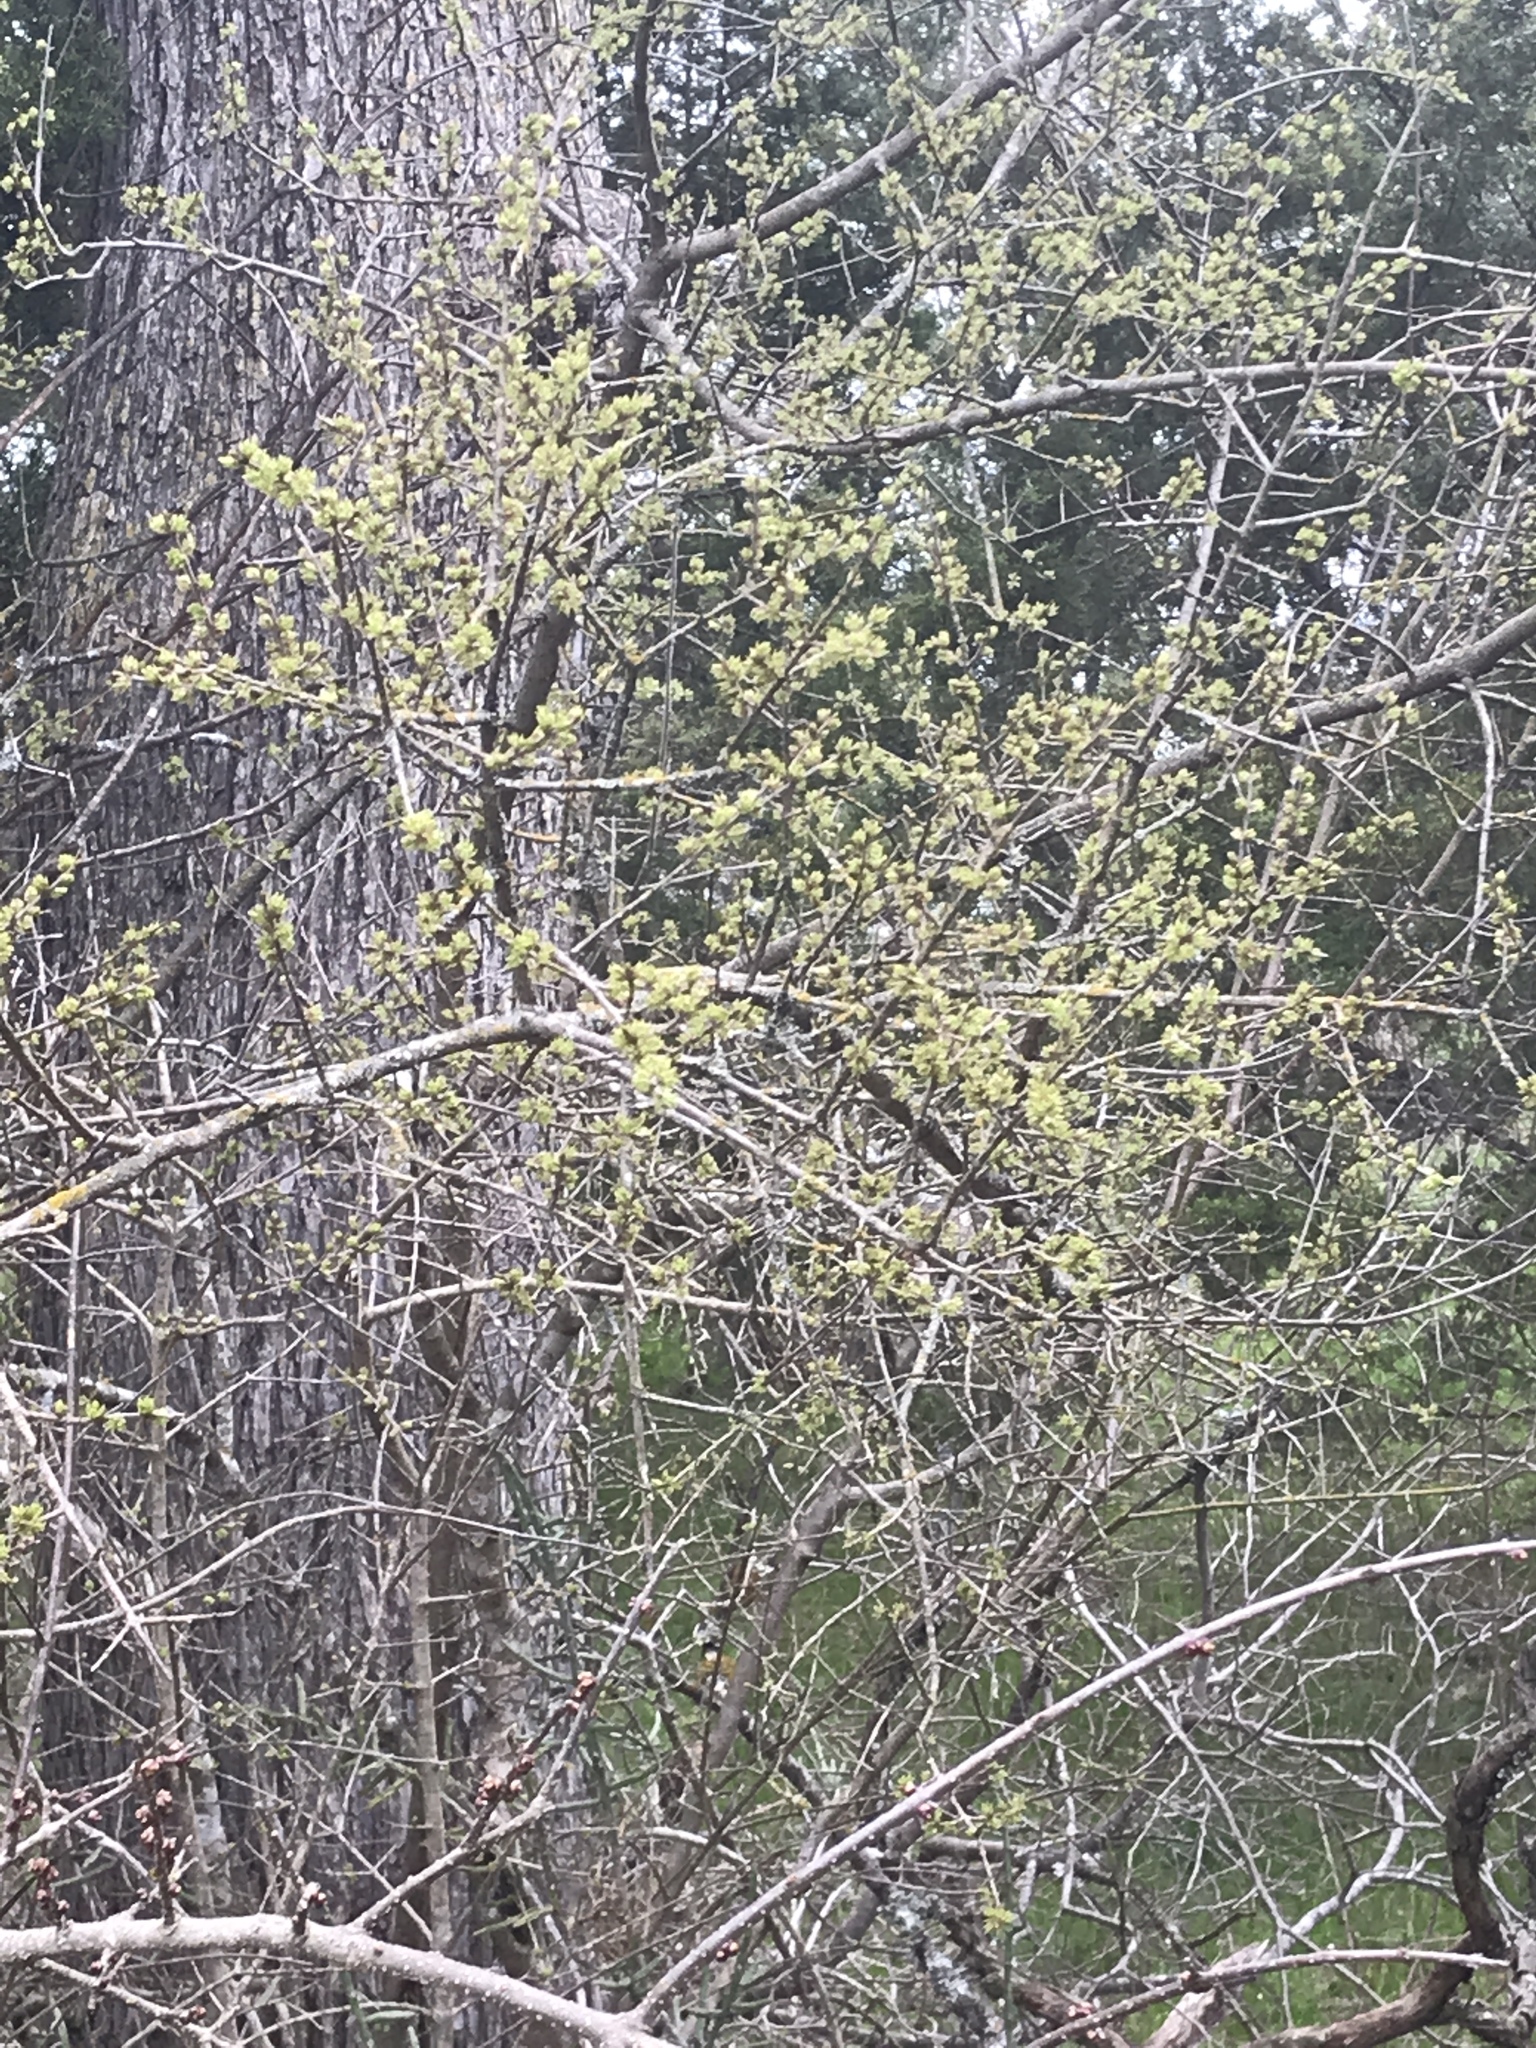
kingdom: Plantae
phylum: Tracheophyta
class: Magnoliopsida
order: Lamiales
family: Oleaceae
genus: Forestiera
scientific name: Forestiera pubescens
